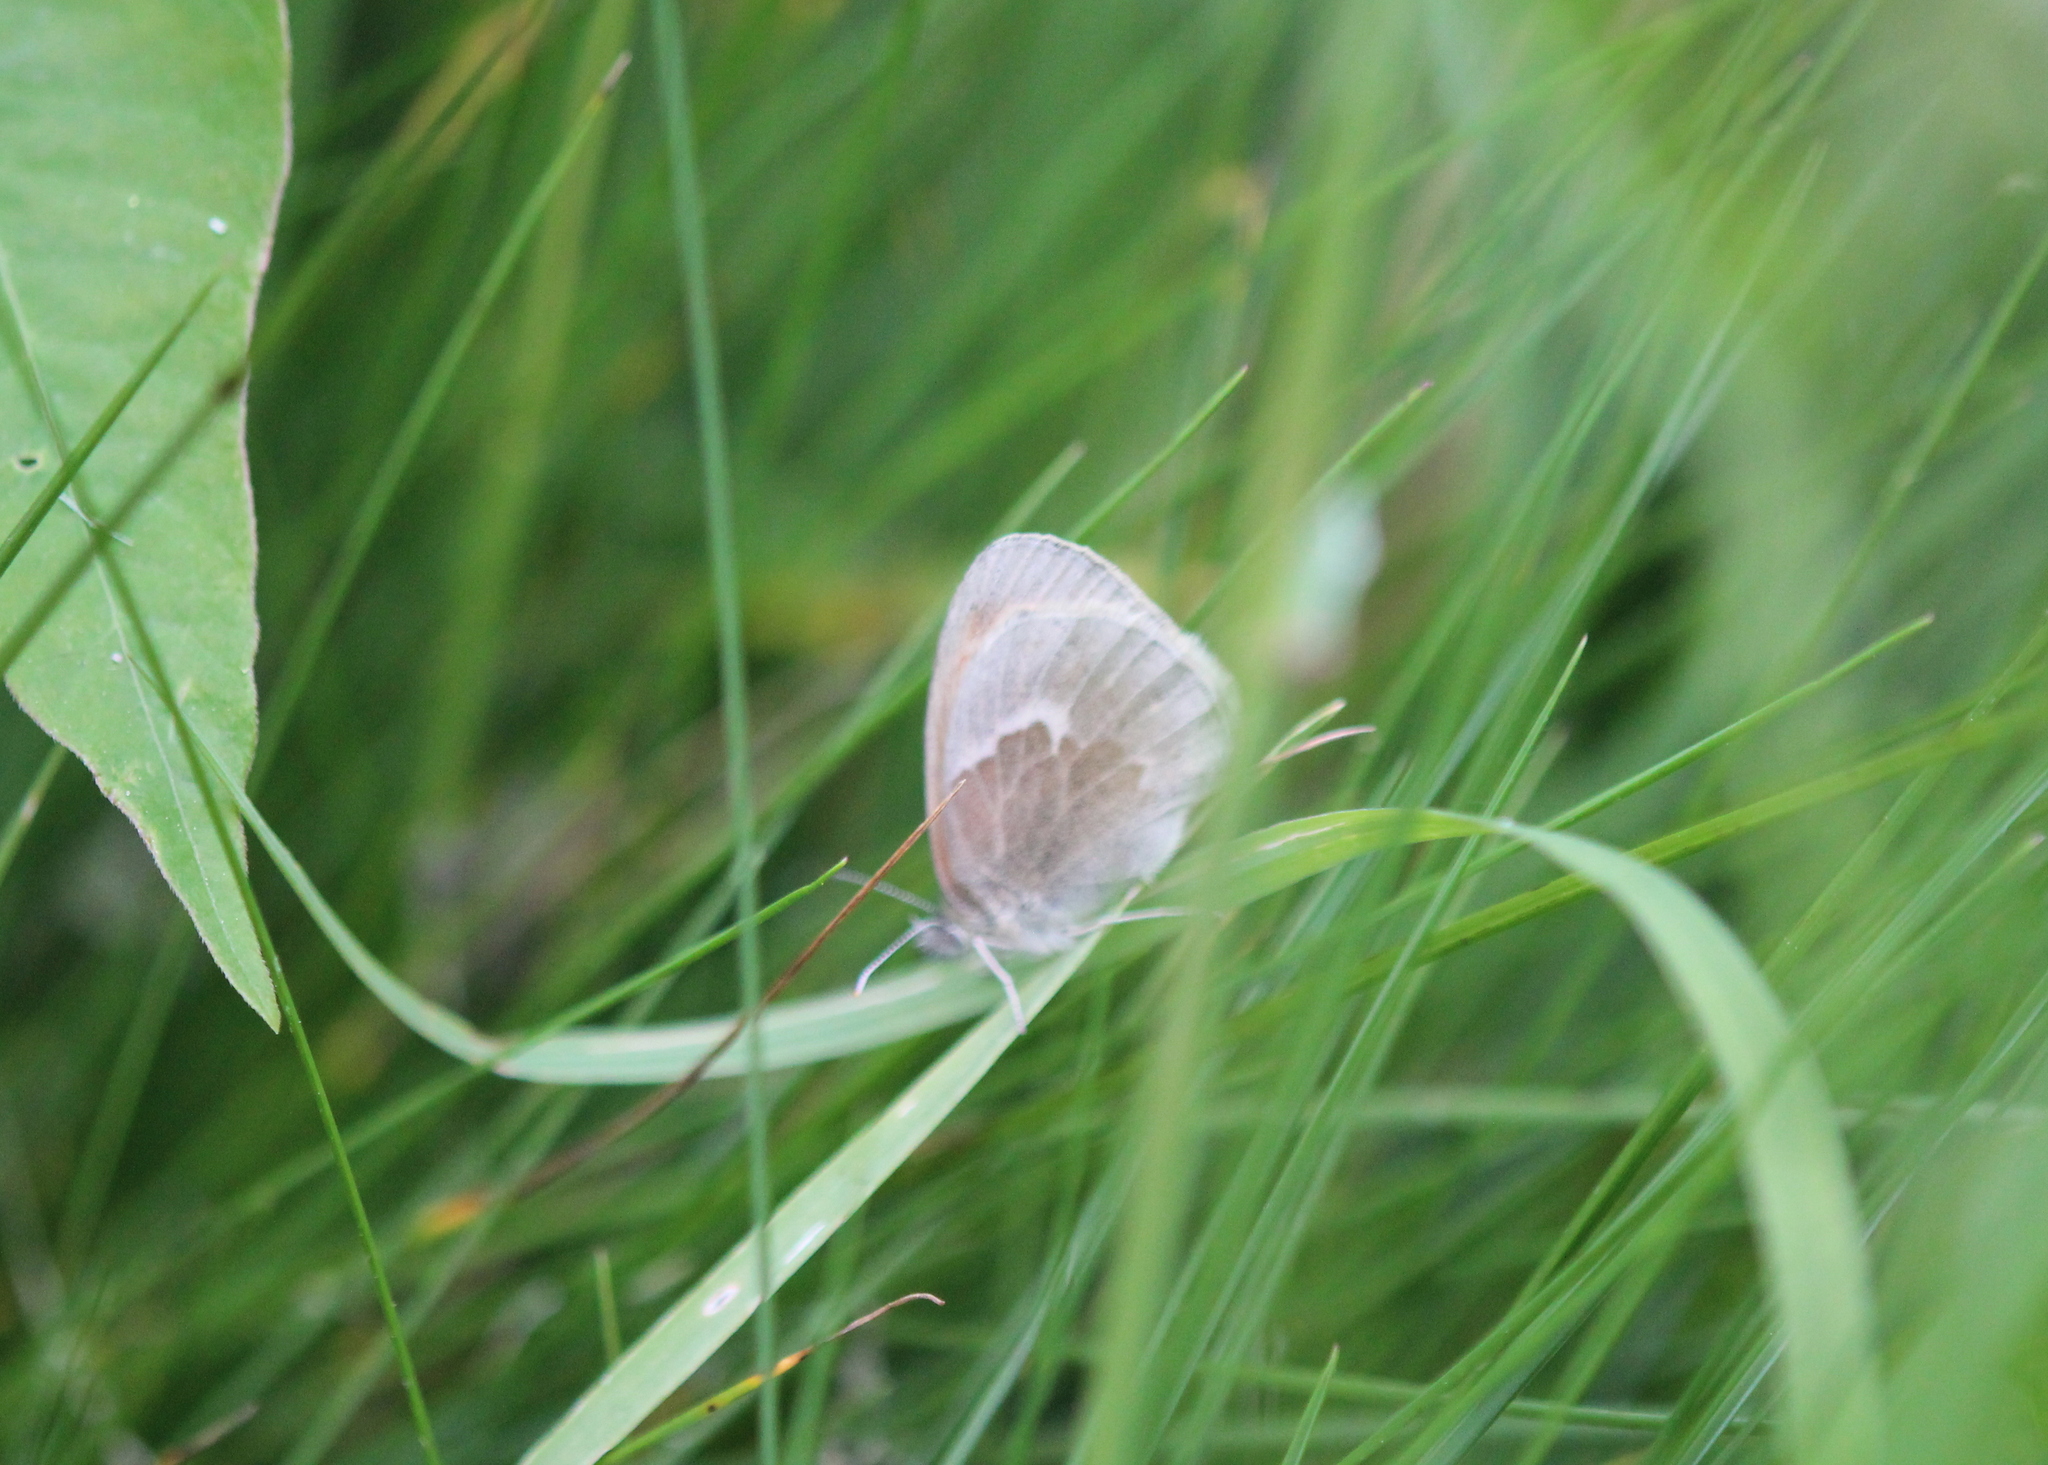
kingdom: Animalia
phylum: Arthropoda
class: Insecta
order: Lepidoptera
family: Nymphalidae
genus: Coenonympha
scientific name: Coenonympha california
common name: Common ringlet
